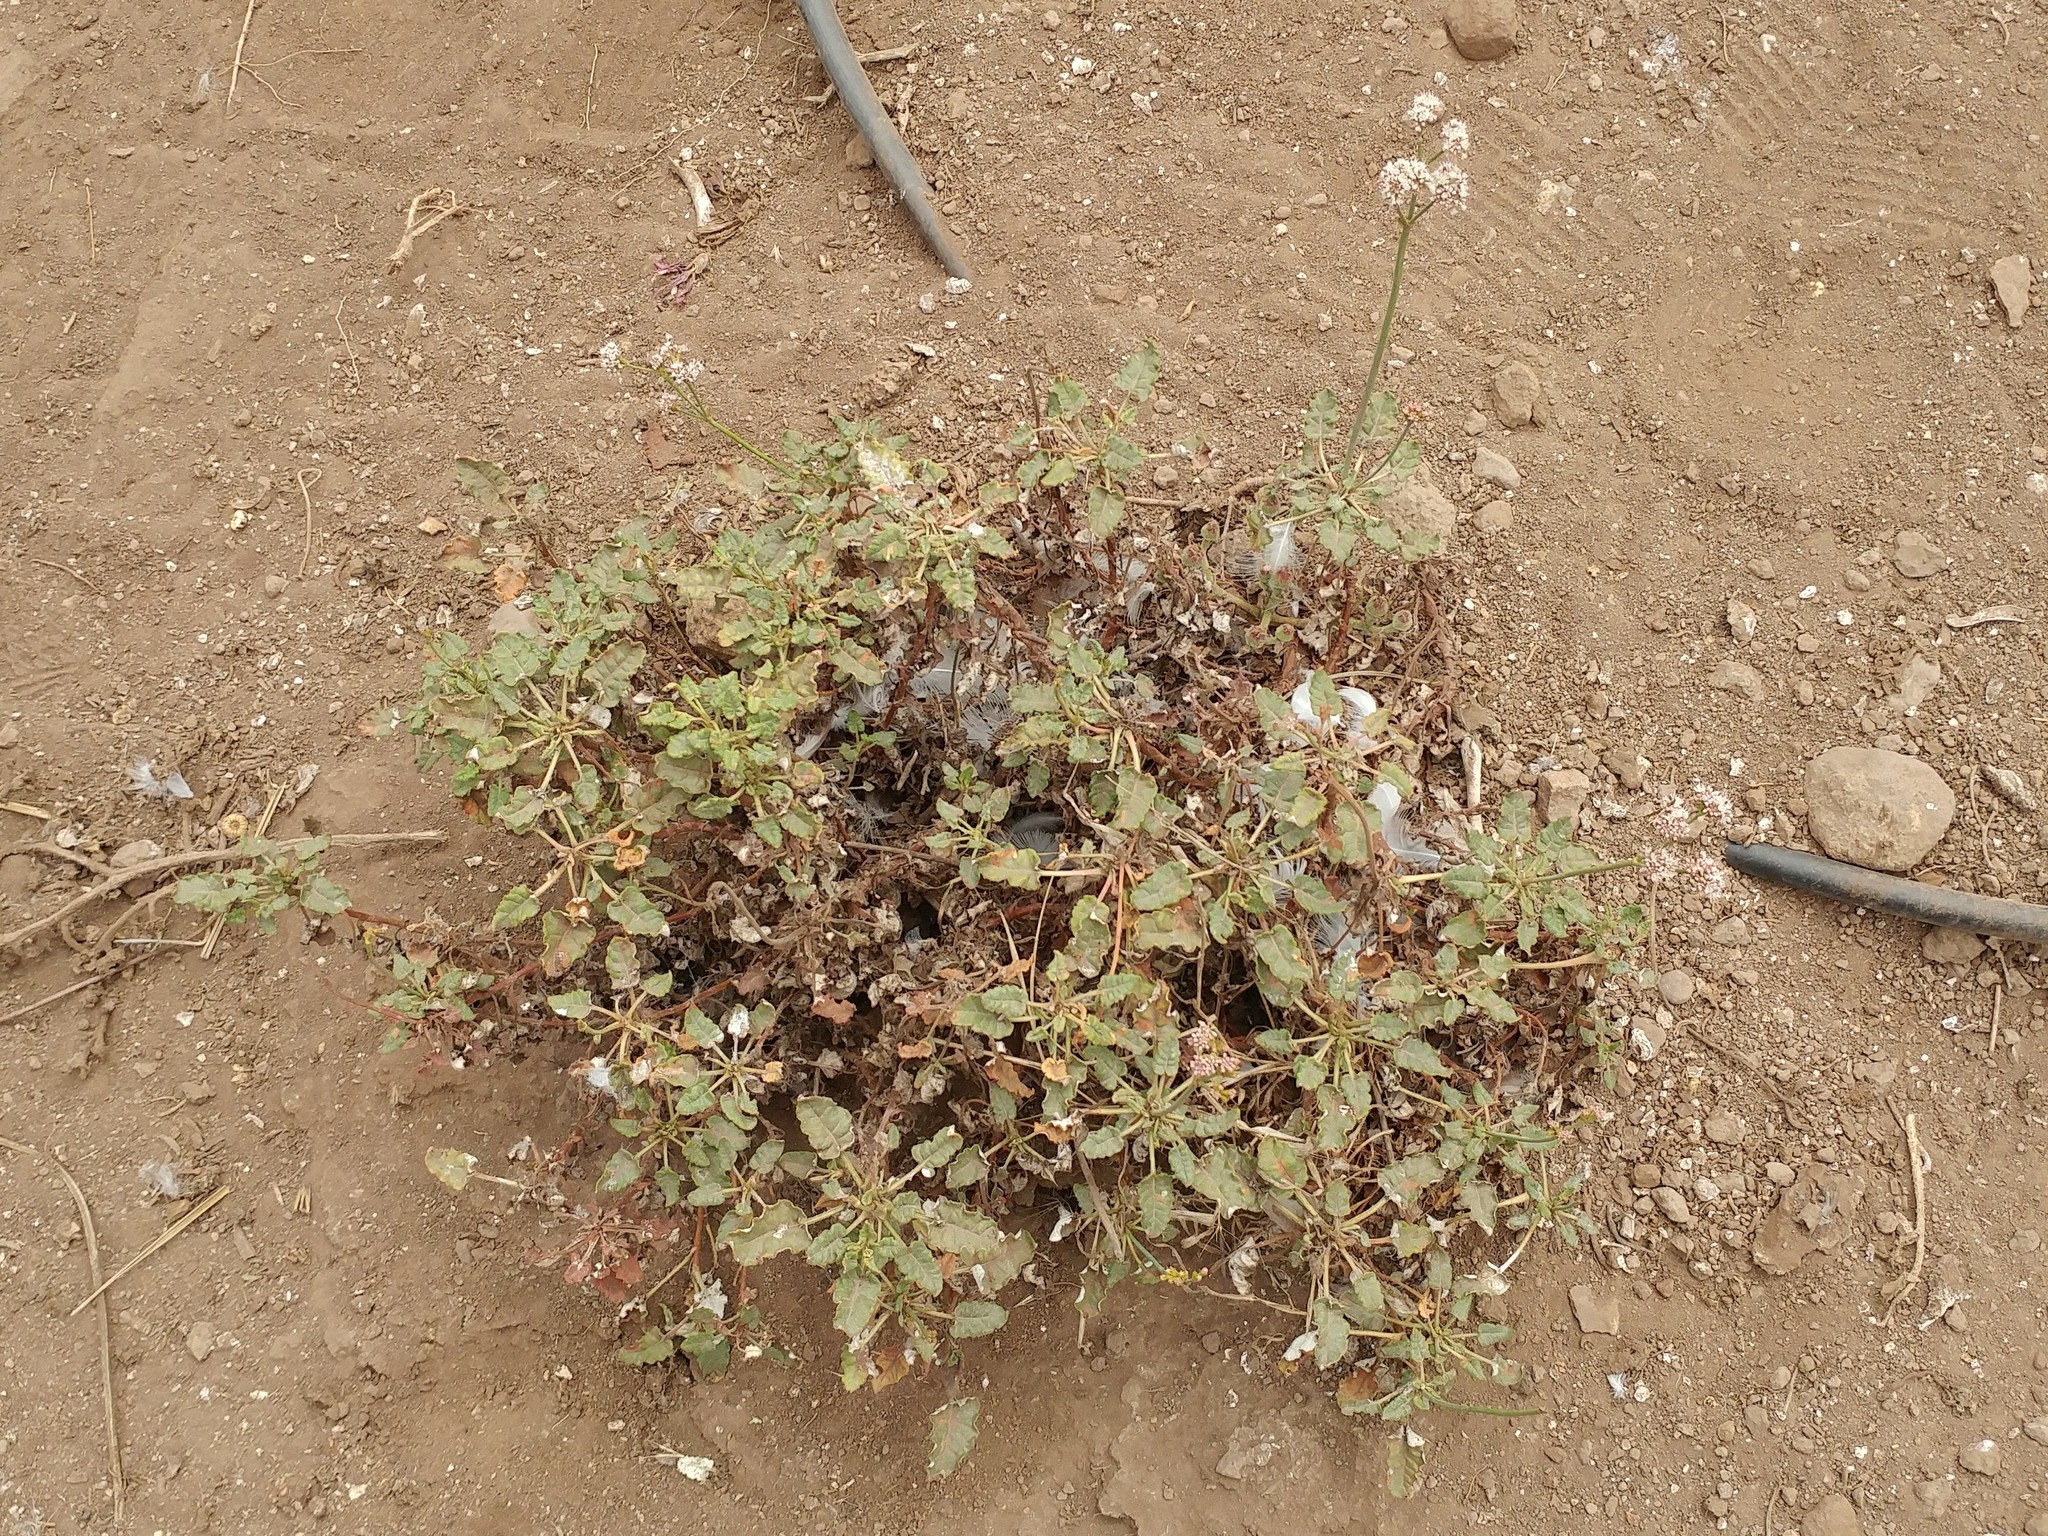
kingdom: Plantae
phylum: Tracheophyta
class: Magnoliopsida
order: Caryophyllales
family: Polygonaceae
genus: Eriogonum
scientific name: Eriogonum grande
